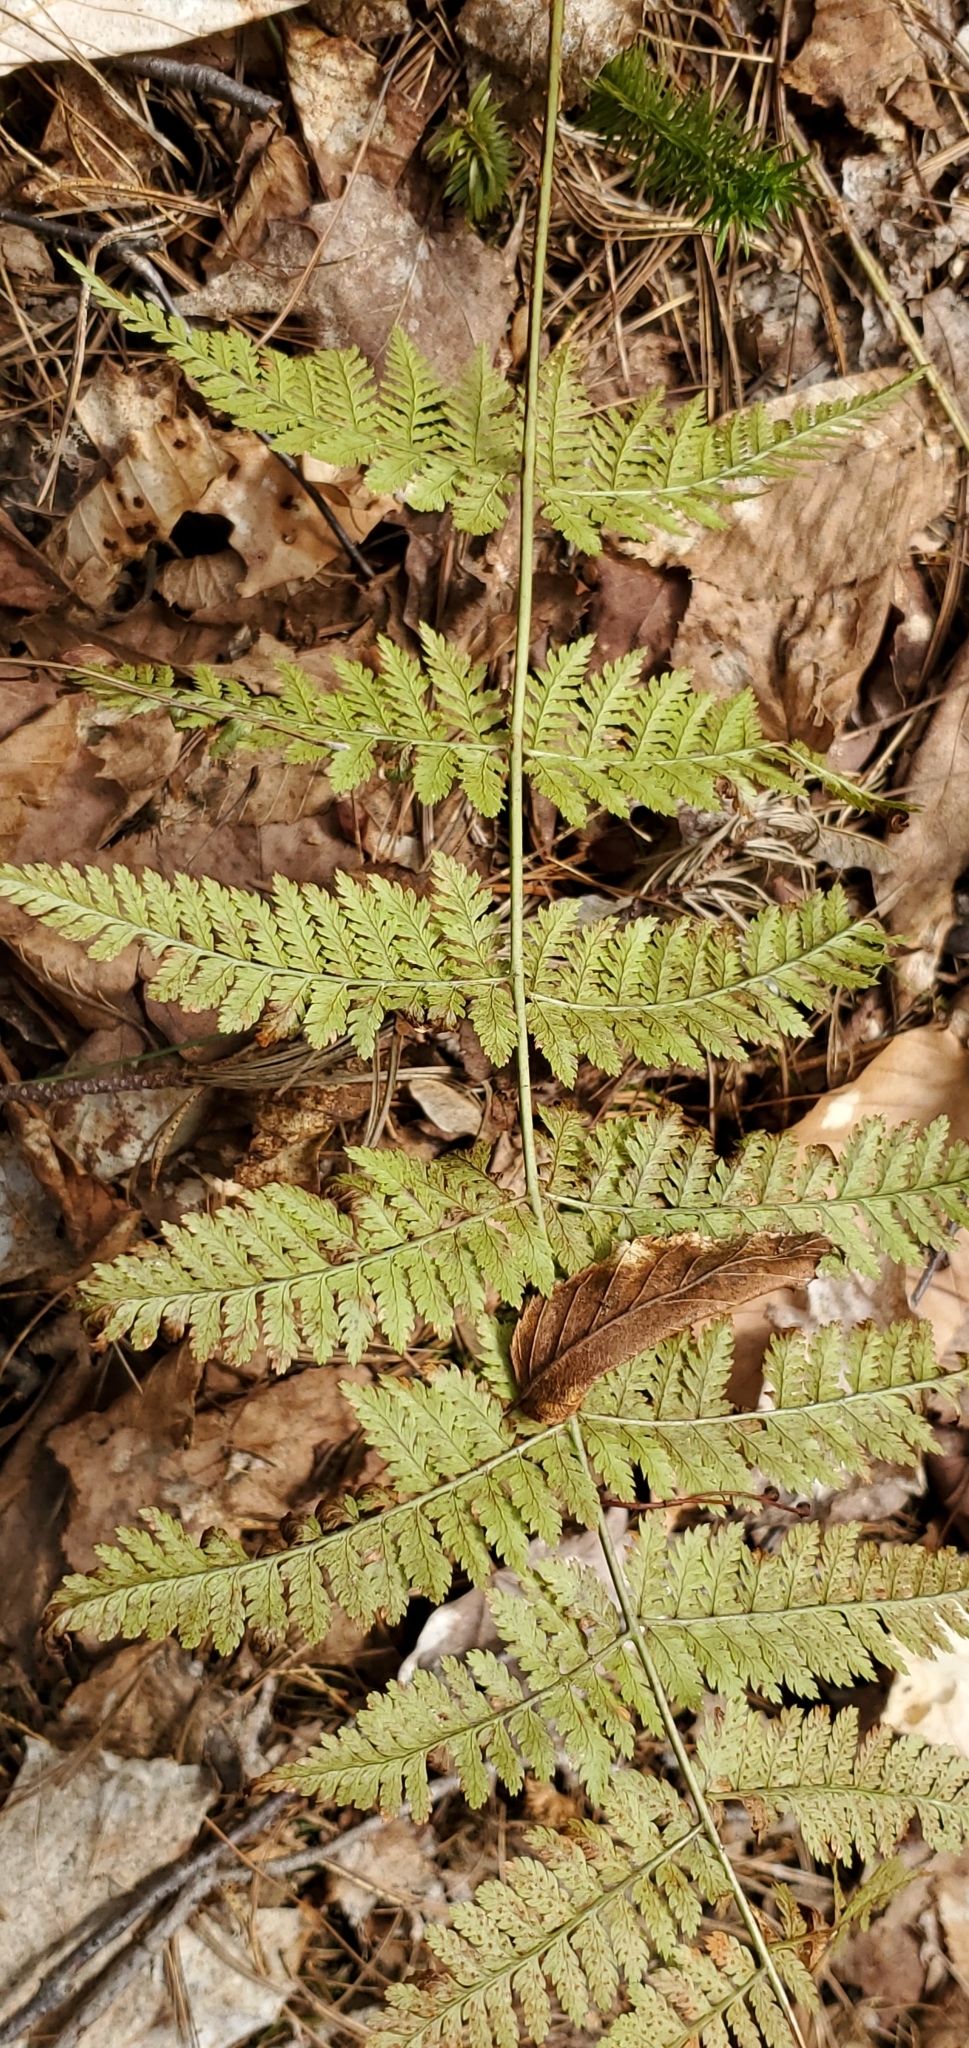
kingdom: Plantae
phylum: Tracheophyta
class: Polypodiopsida
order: Polypodiales
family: Dryopteridaceae
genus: Dryopteris
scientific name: Dryopteris intermedia
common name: Evergreen wood fern
